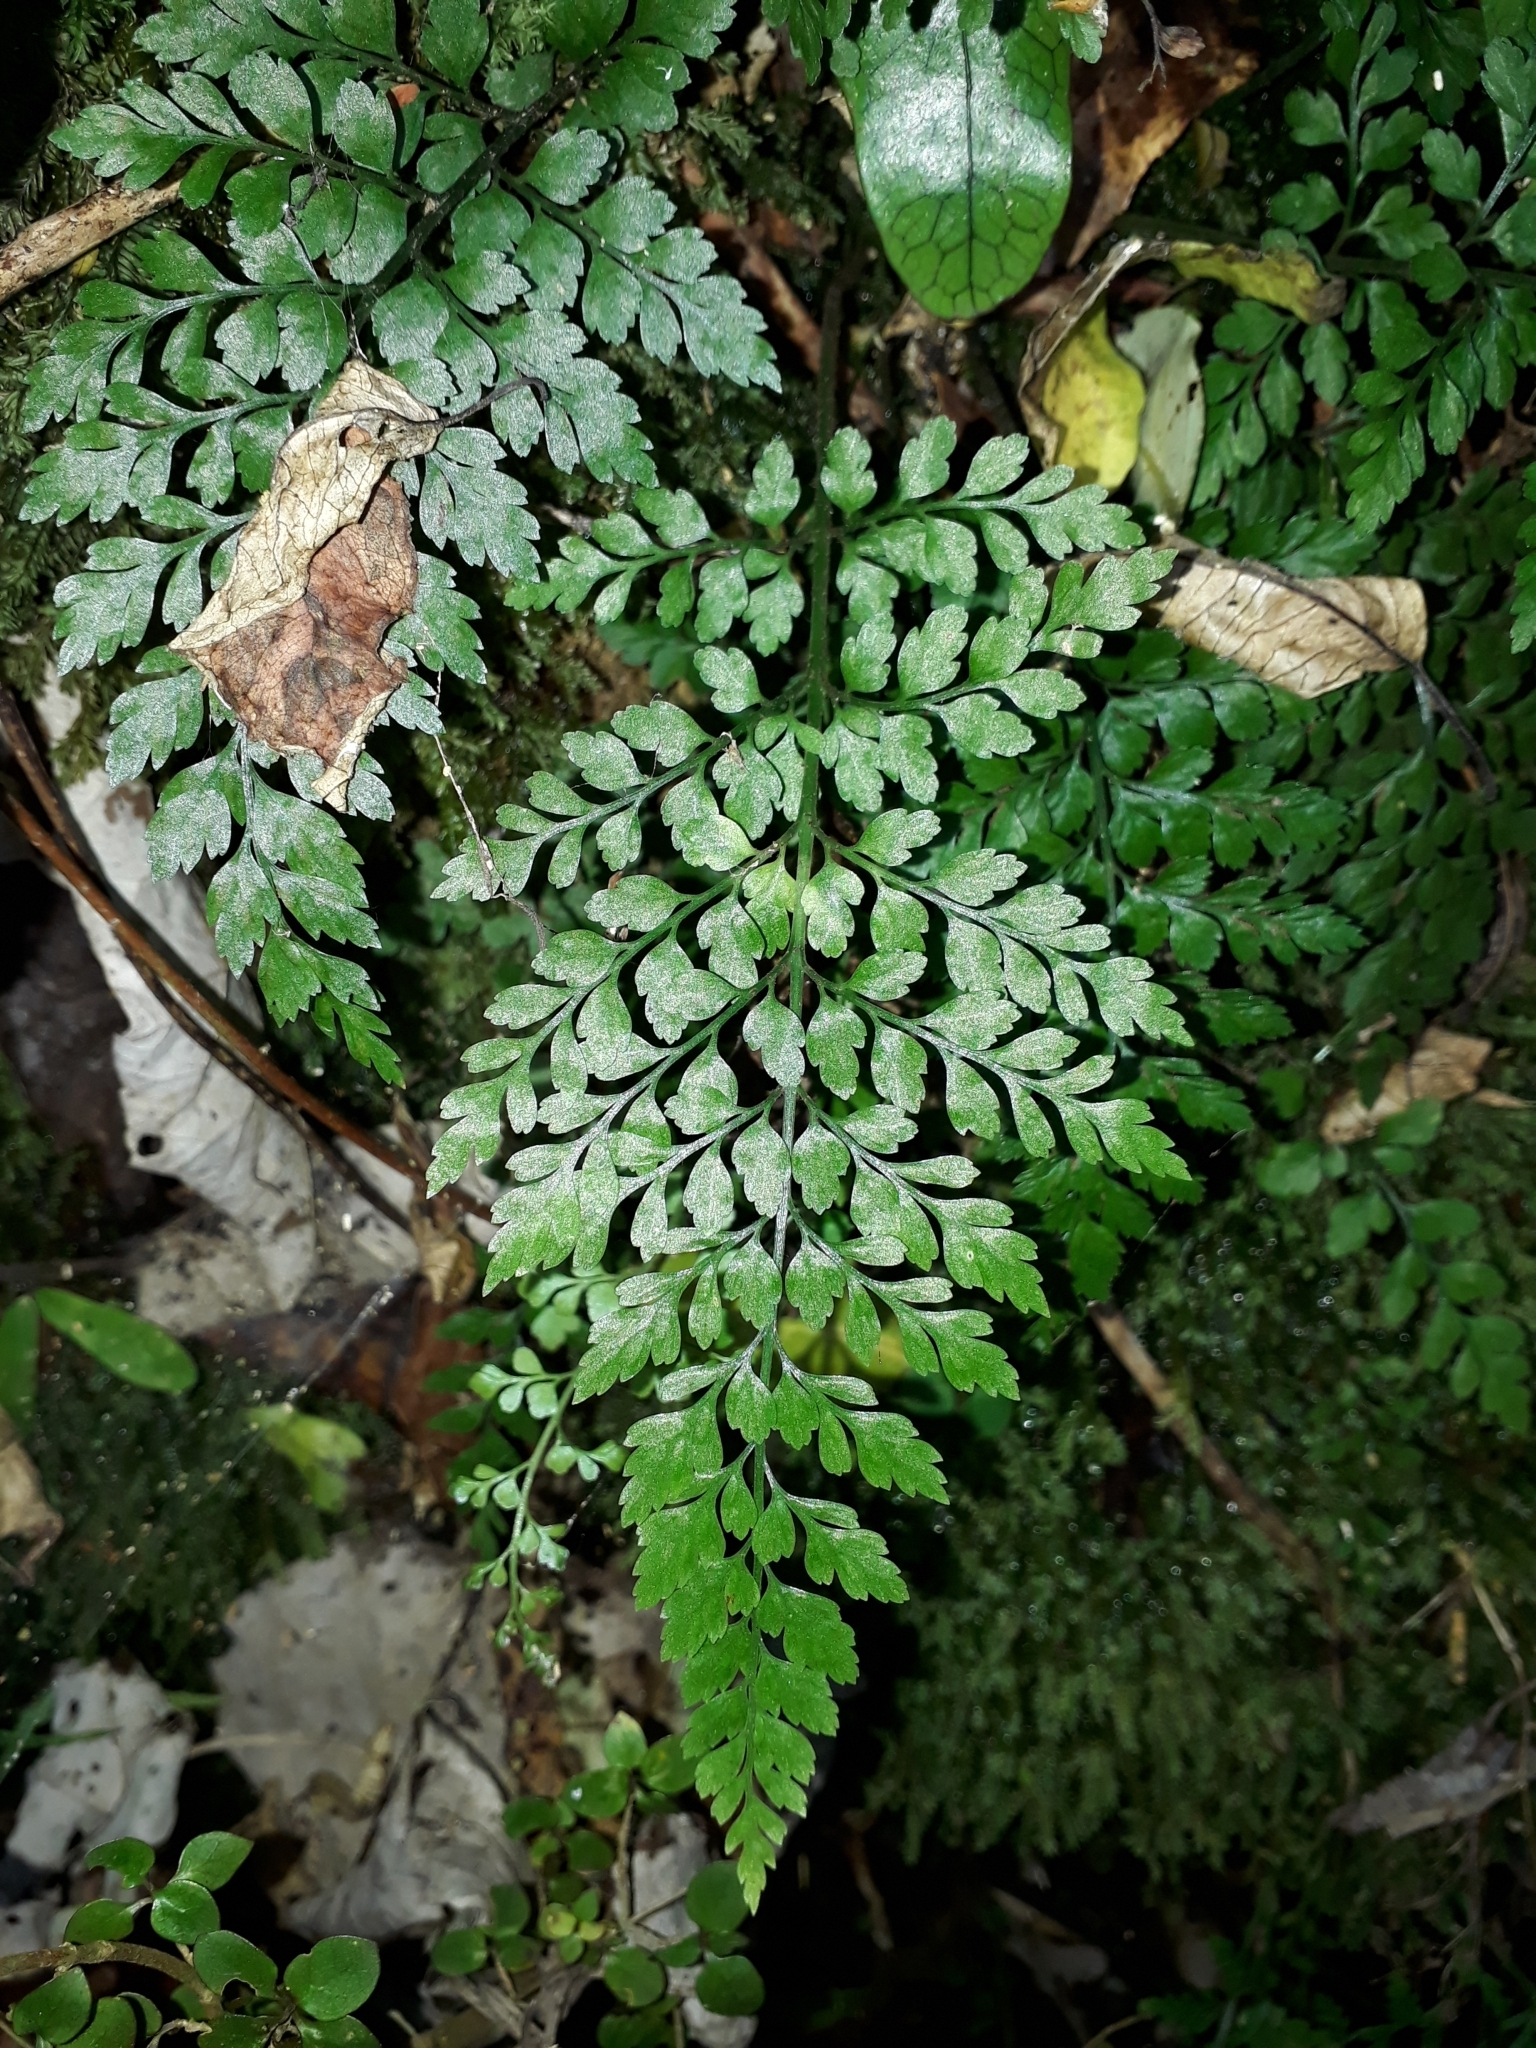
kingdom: Plantae
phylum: Tracheophyta
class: Polypodiopsida
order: Polypodiales
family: Aspleniaceae
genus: Asplenium
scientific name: Asplenium hookerianum
